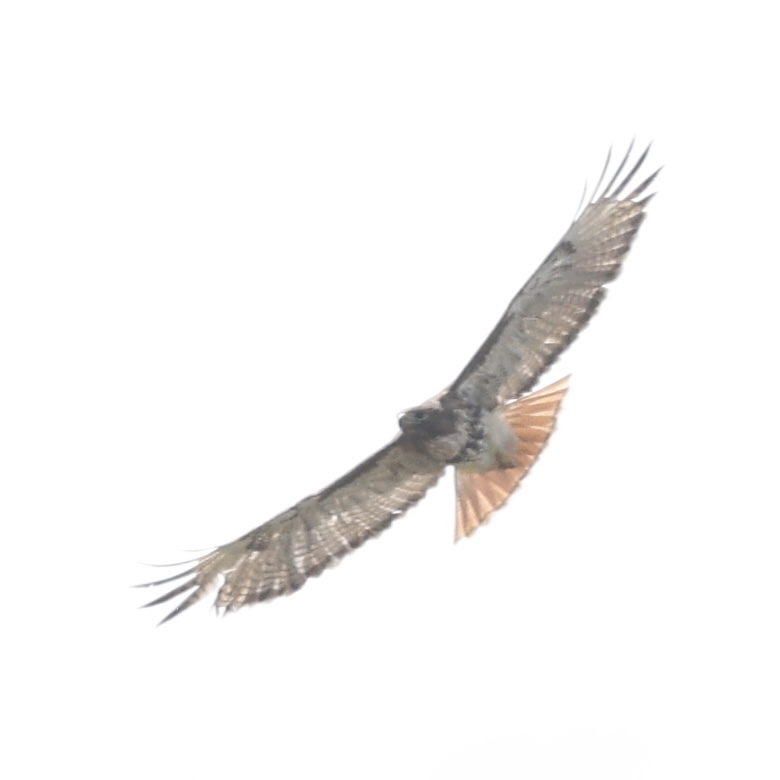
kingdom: Animalia
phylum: Chordata
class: Aves
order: Accipitriformes
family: Accipitridae
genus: Buteo
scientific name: Buteo jamaicensis
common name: Red-tailed hawk
